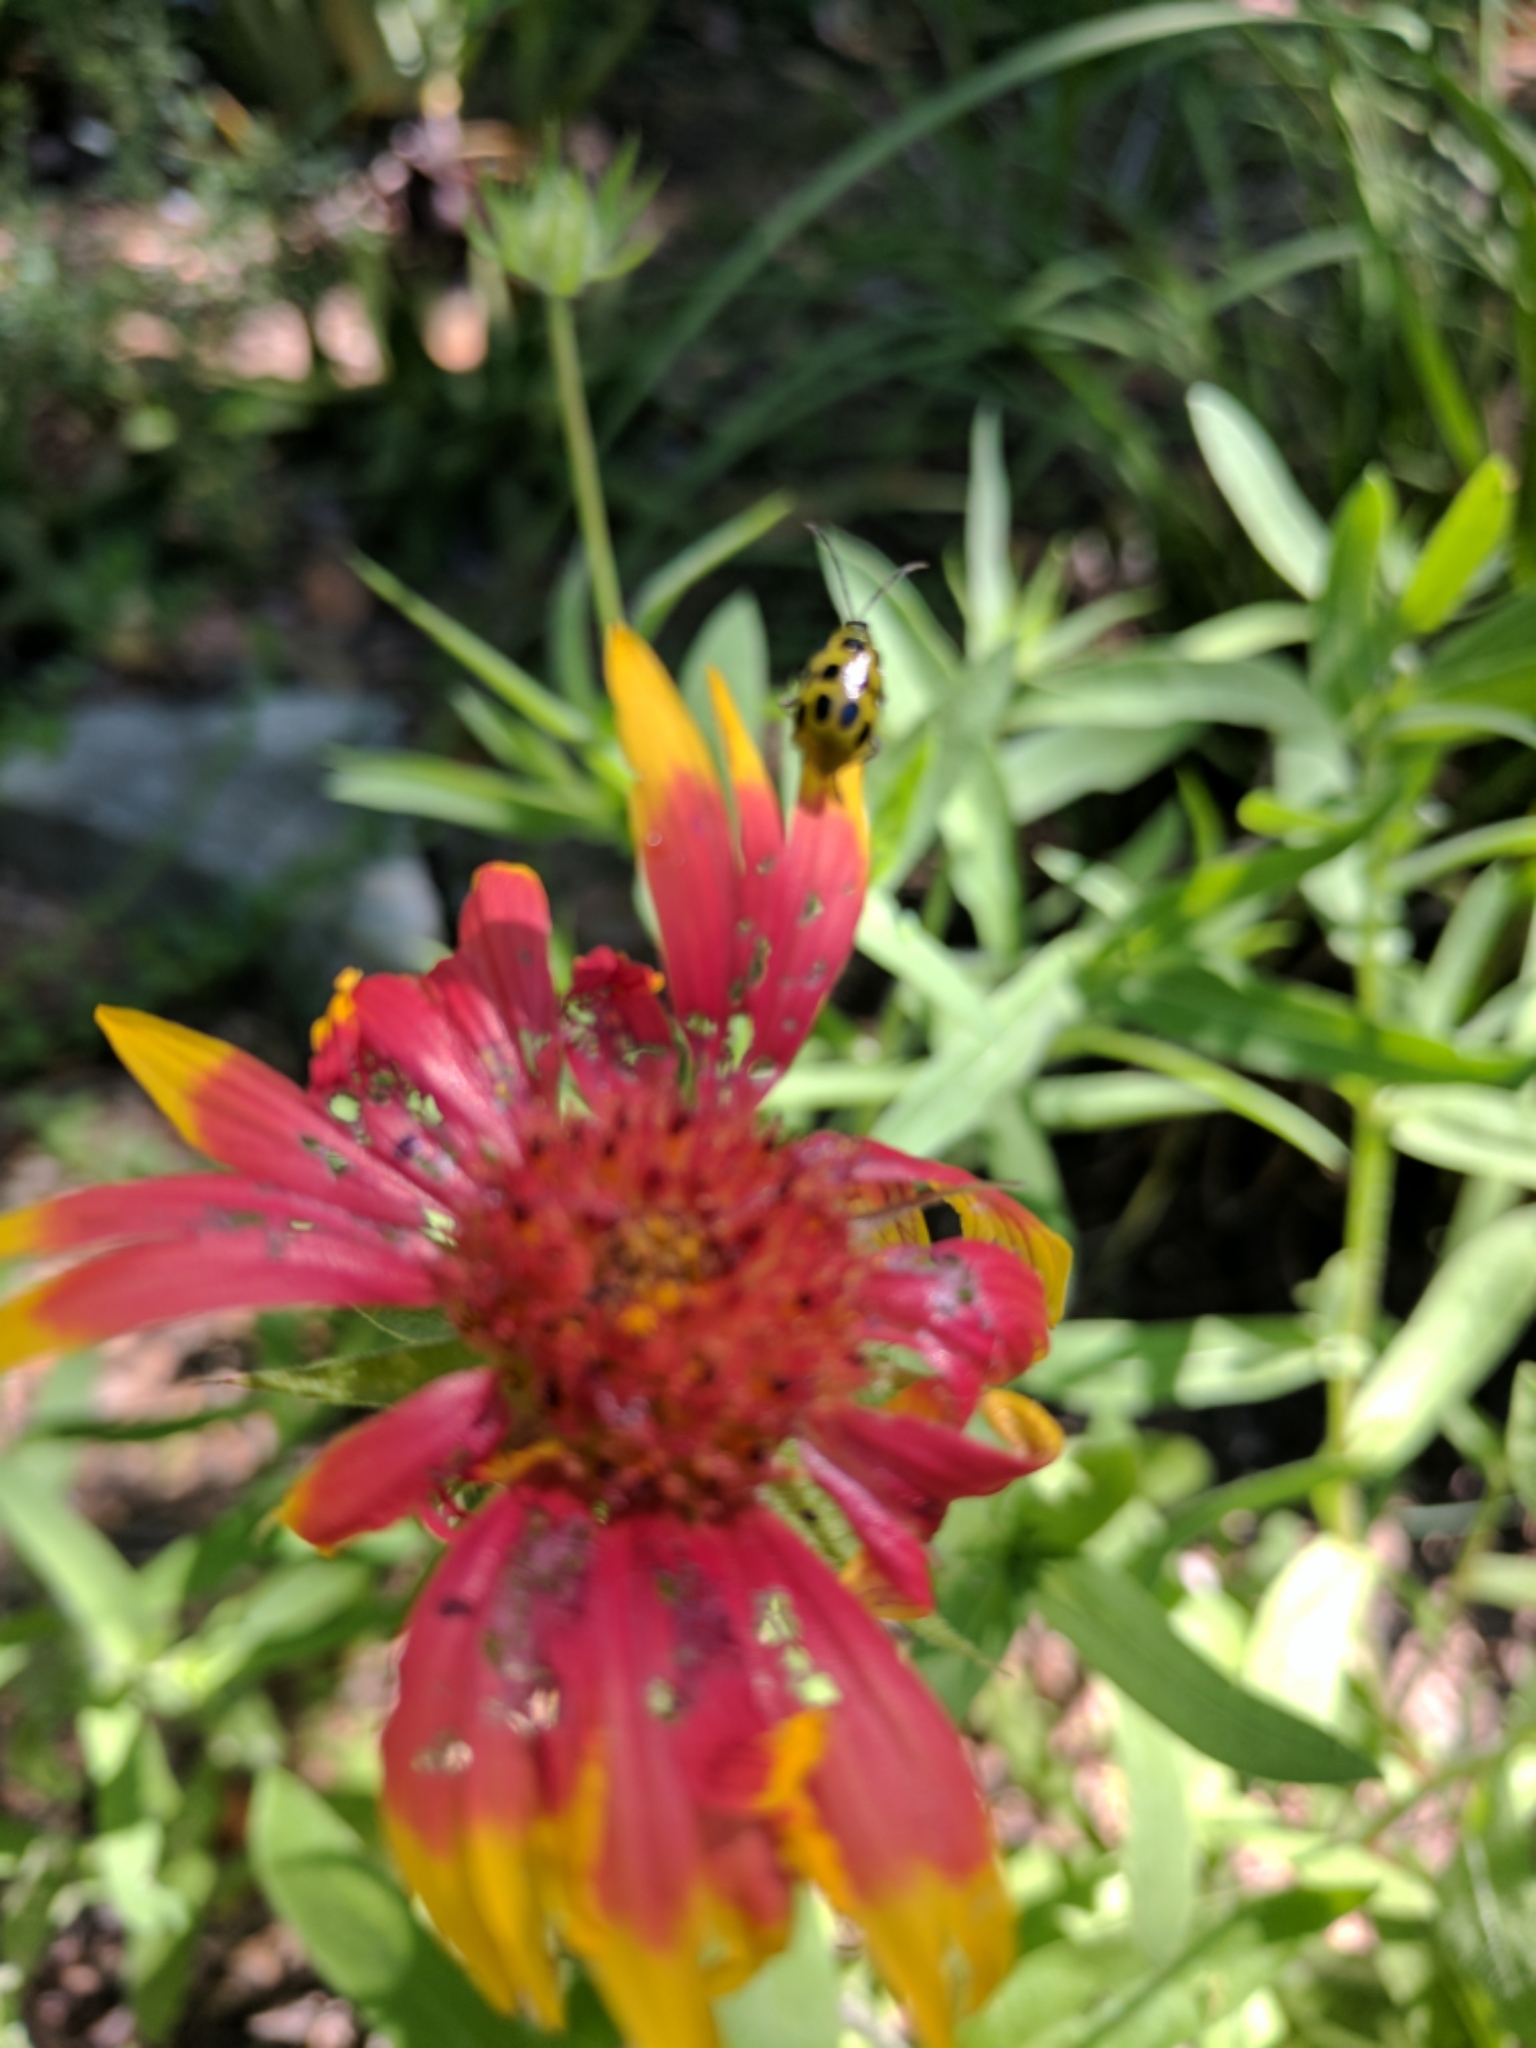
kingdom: Animalia
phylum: Arthropoda
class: Insecta
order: Coleoptera
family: Chrysomelidae
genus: Diabrotica
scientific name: Diabrotica undecimpunctata
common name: Spotted cucumber beetle
